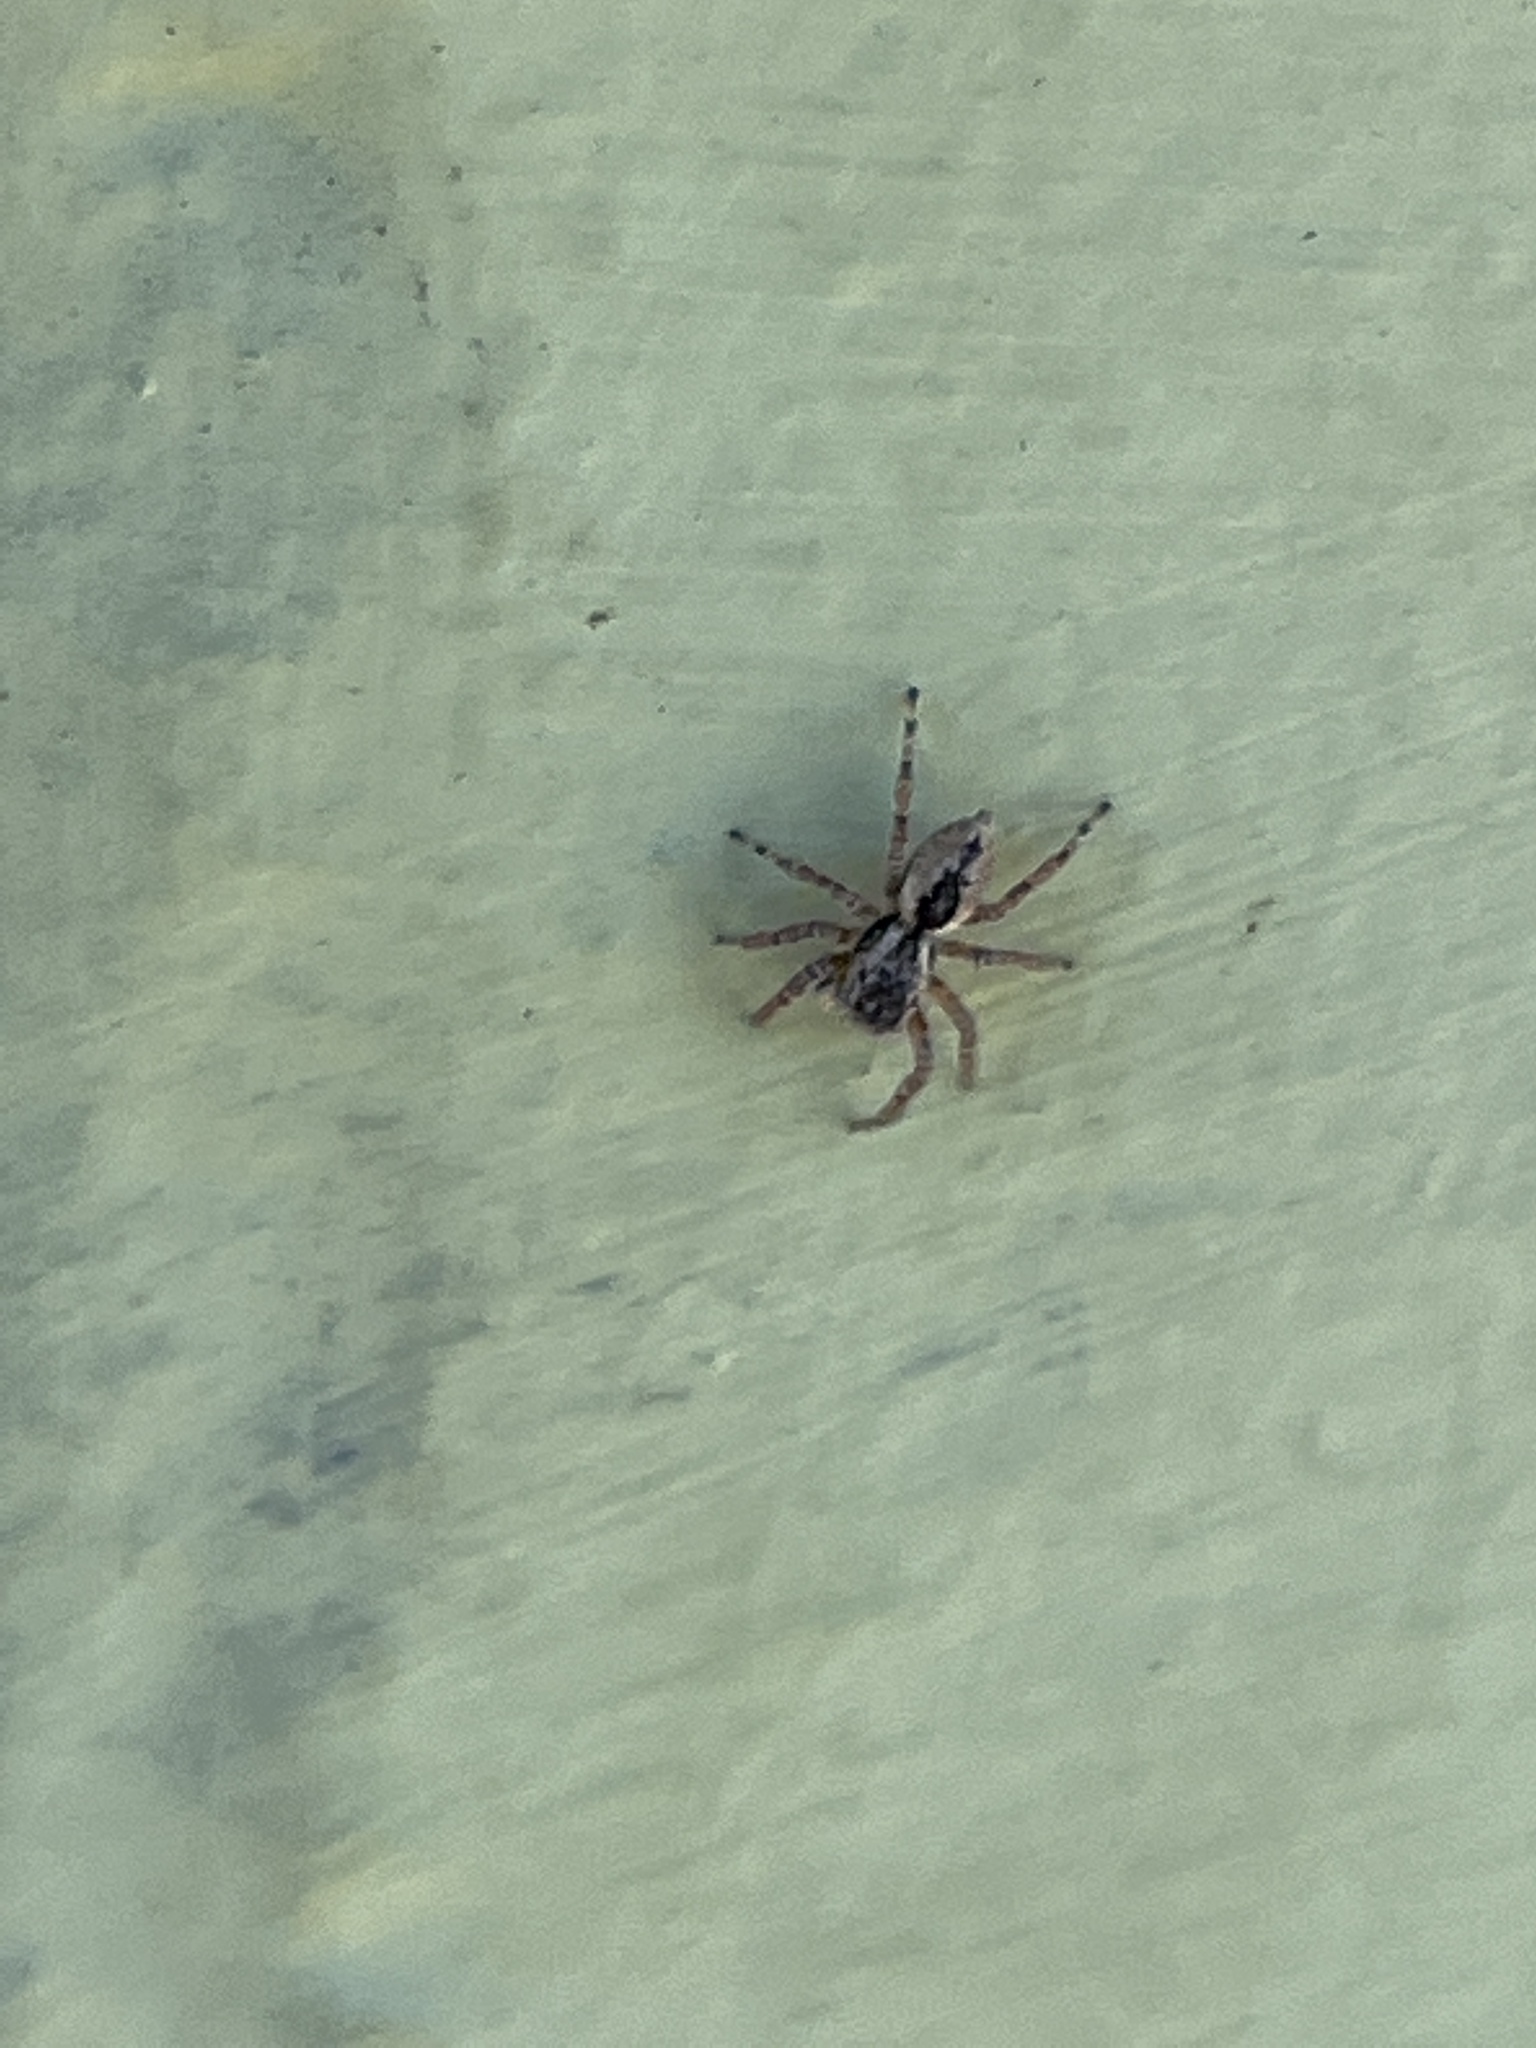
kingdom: Animalia
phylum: Arthropoda
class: Arachnida
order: Araneae
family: Salticidae
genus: Mexigonus
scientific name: Mexigonus minutus
